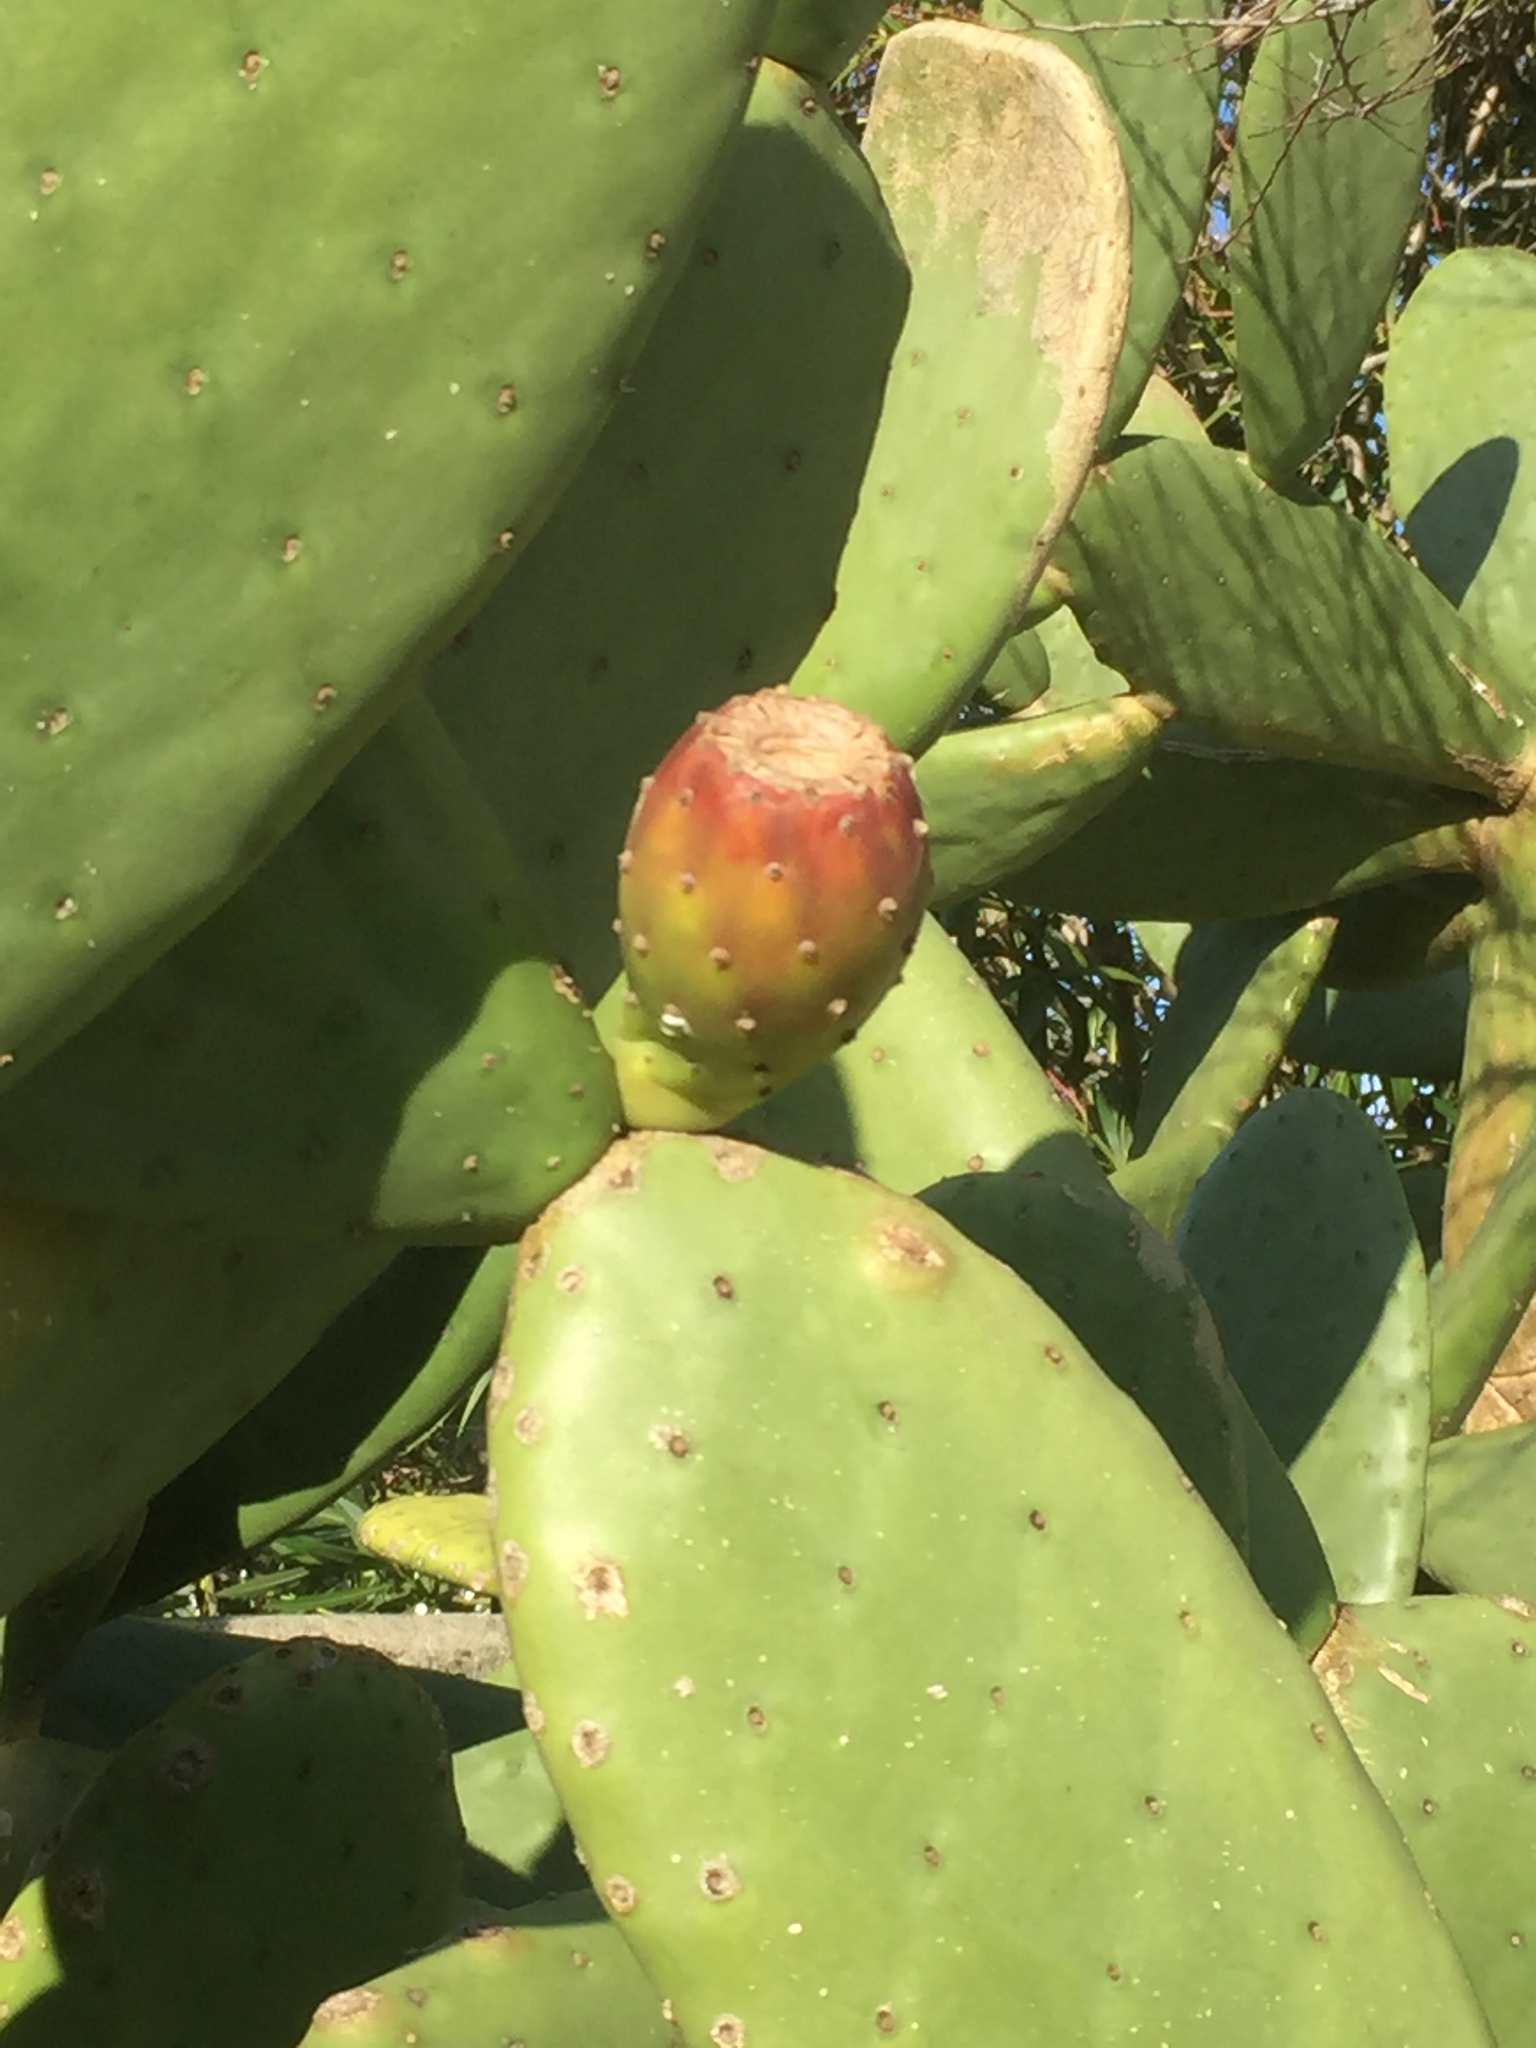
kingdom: Plantae
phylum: Tracheophyta
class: Magnoliopsida
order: Caryophyllales
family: Cactaceae
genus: Opuntia
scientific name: Opuntia ficus-indica
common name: Barbary fig
